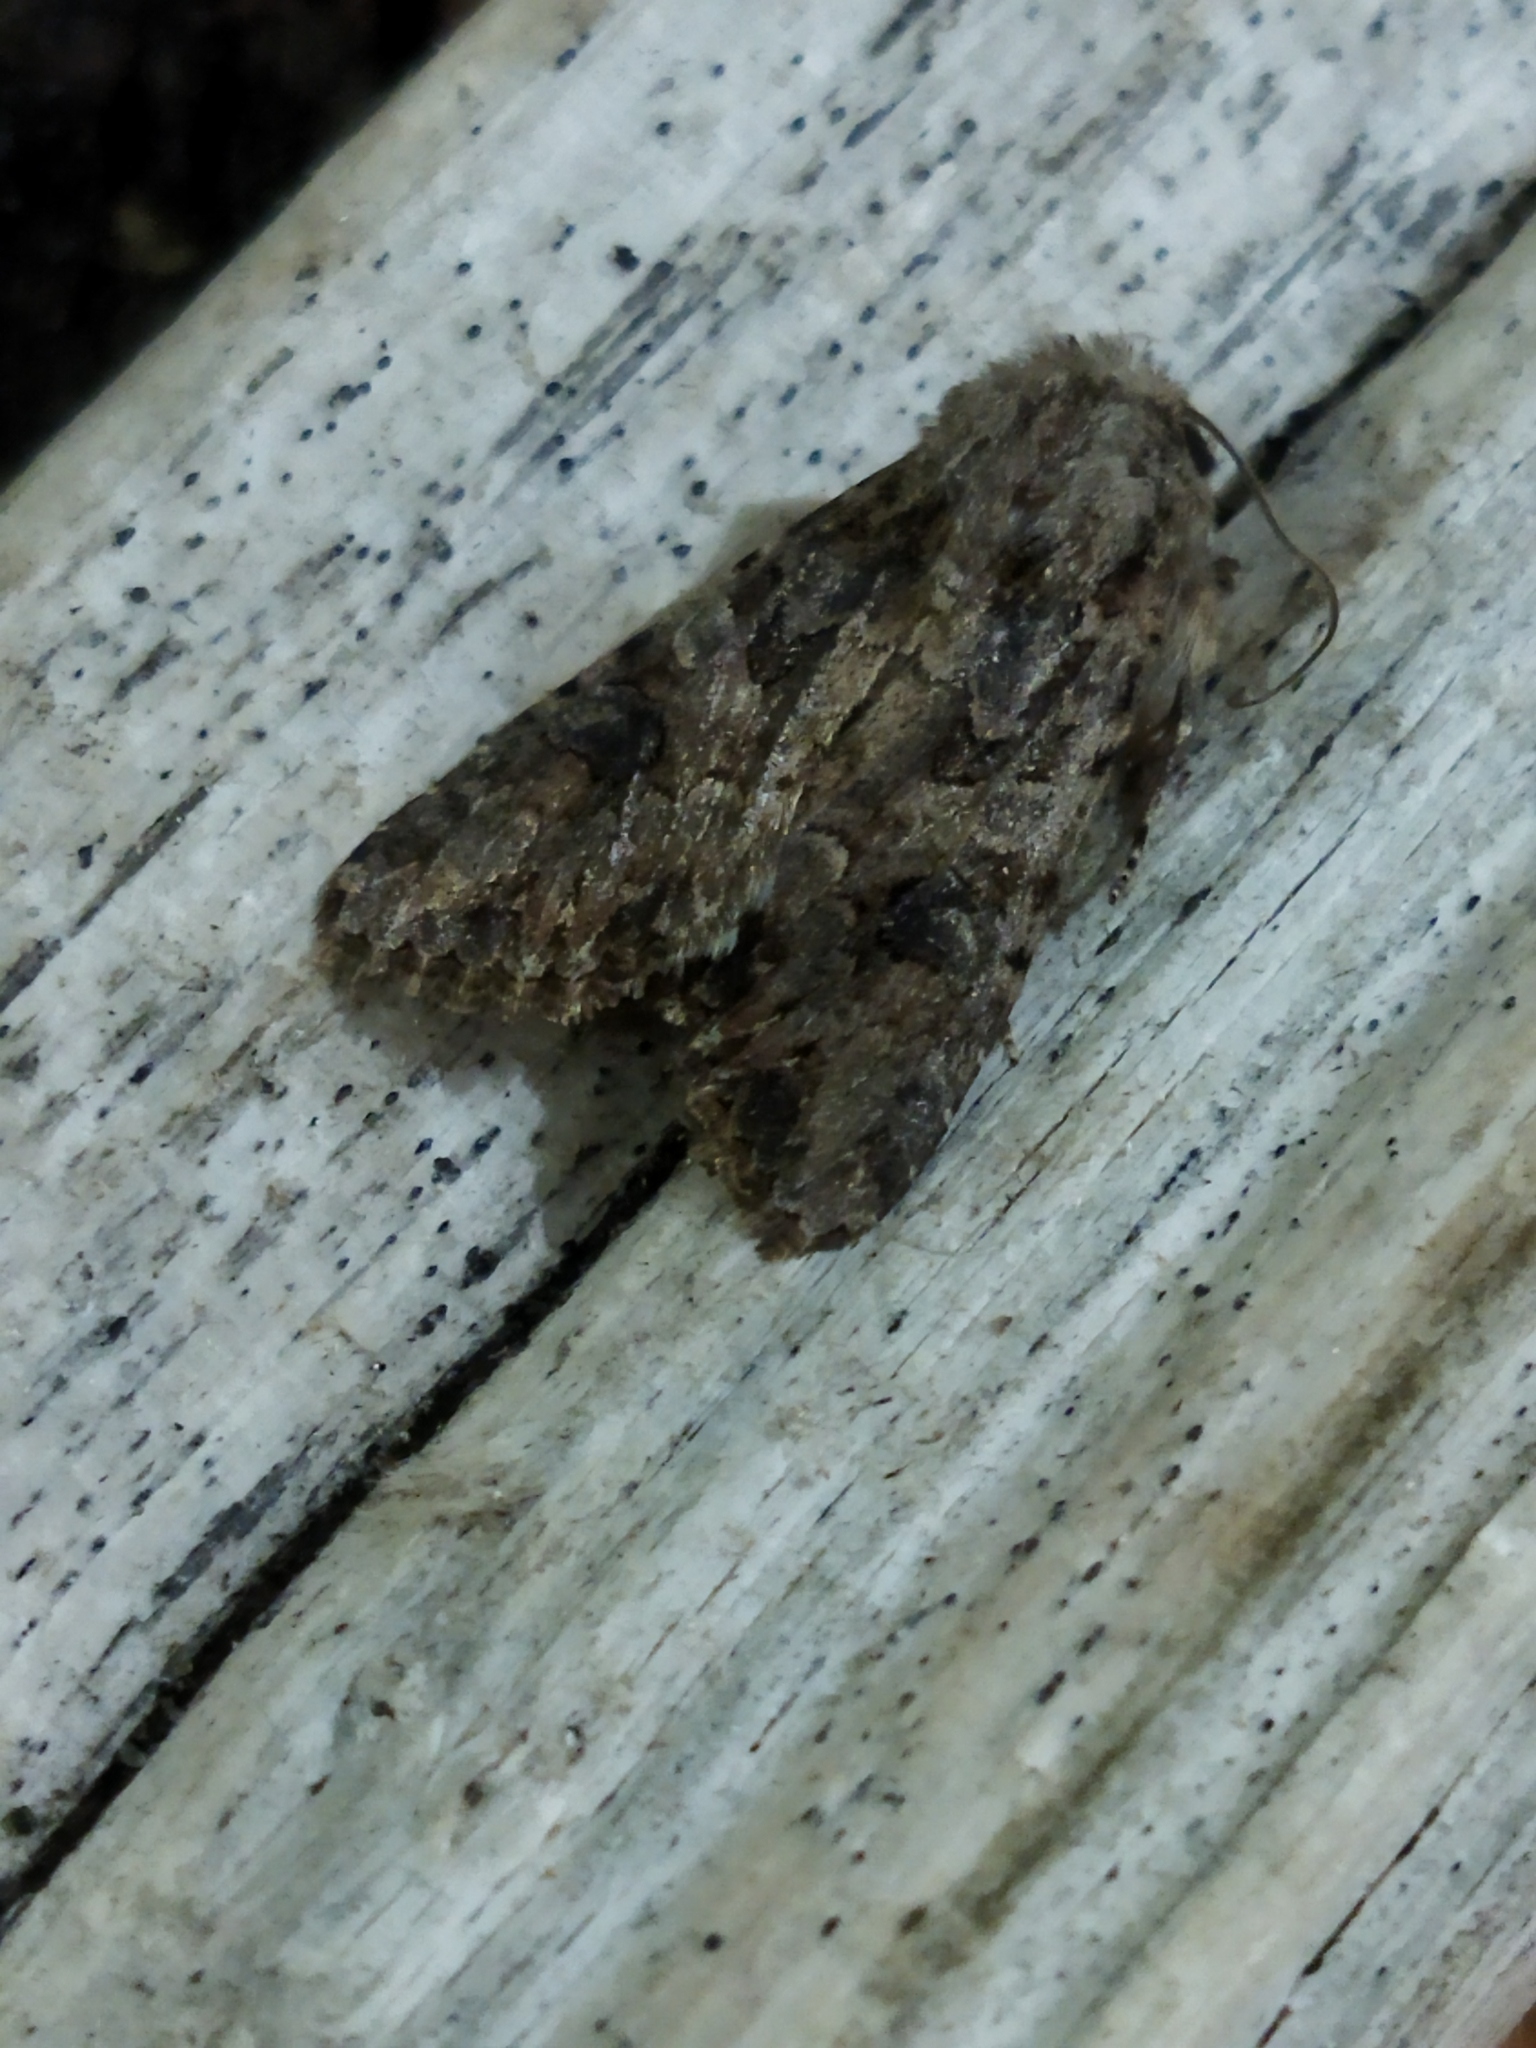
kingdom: Animalia
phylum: Arthropoda
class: Insecta
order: Lepidoptera
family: Noctuidae
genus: Anarta
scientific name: Anarta trifolii
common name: Clover cutworm moth
